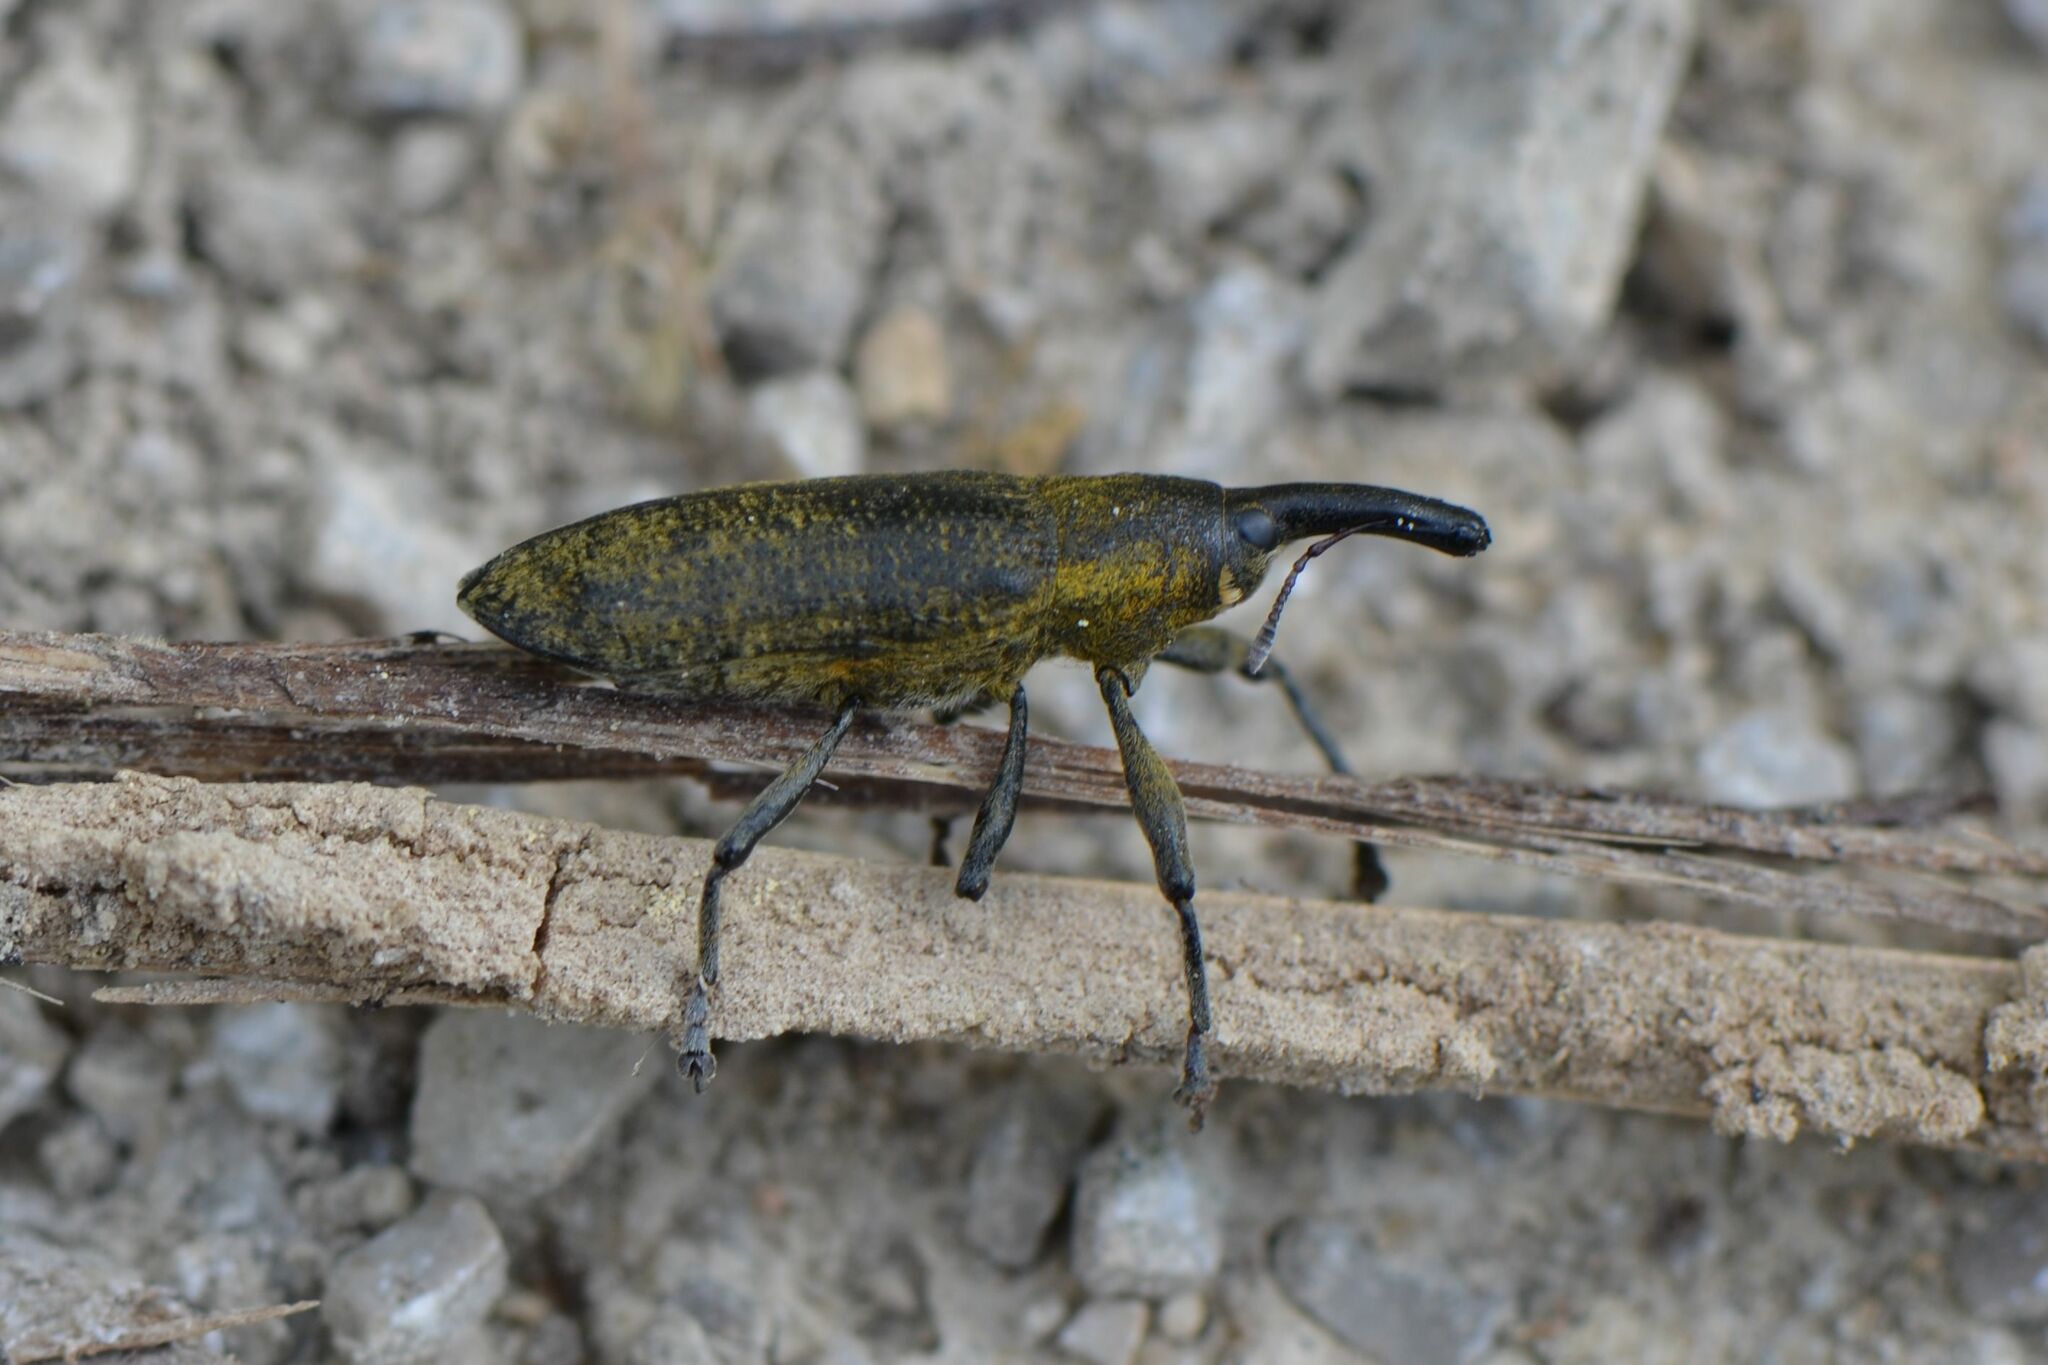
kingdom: Animalia
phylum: Arthropoda
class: Insecta
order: Coleoptera
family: Curculionidae
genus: Lixus
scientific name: Lixus pulverulentus
